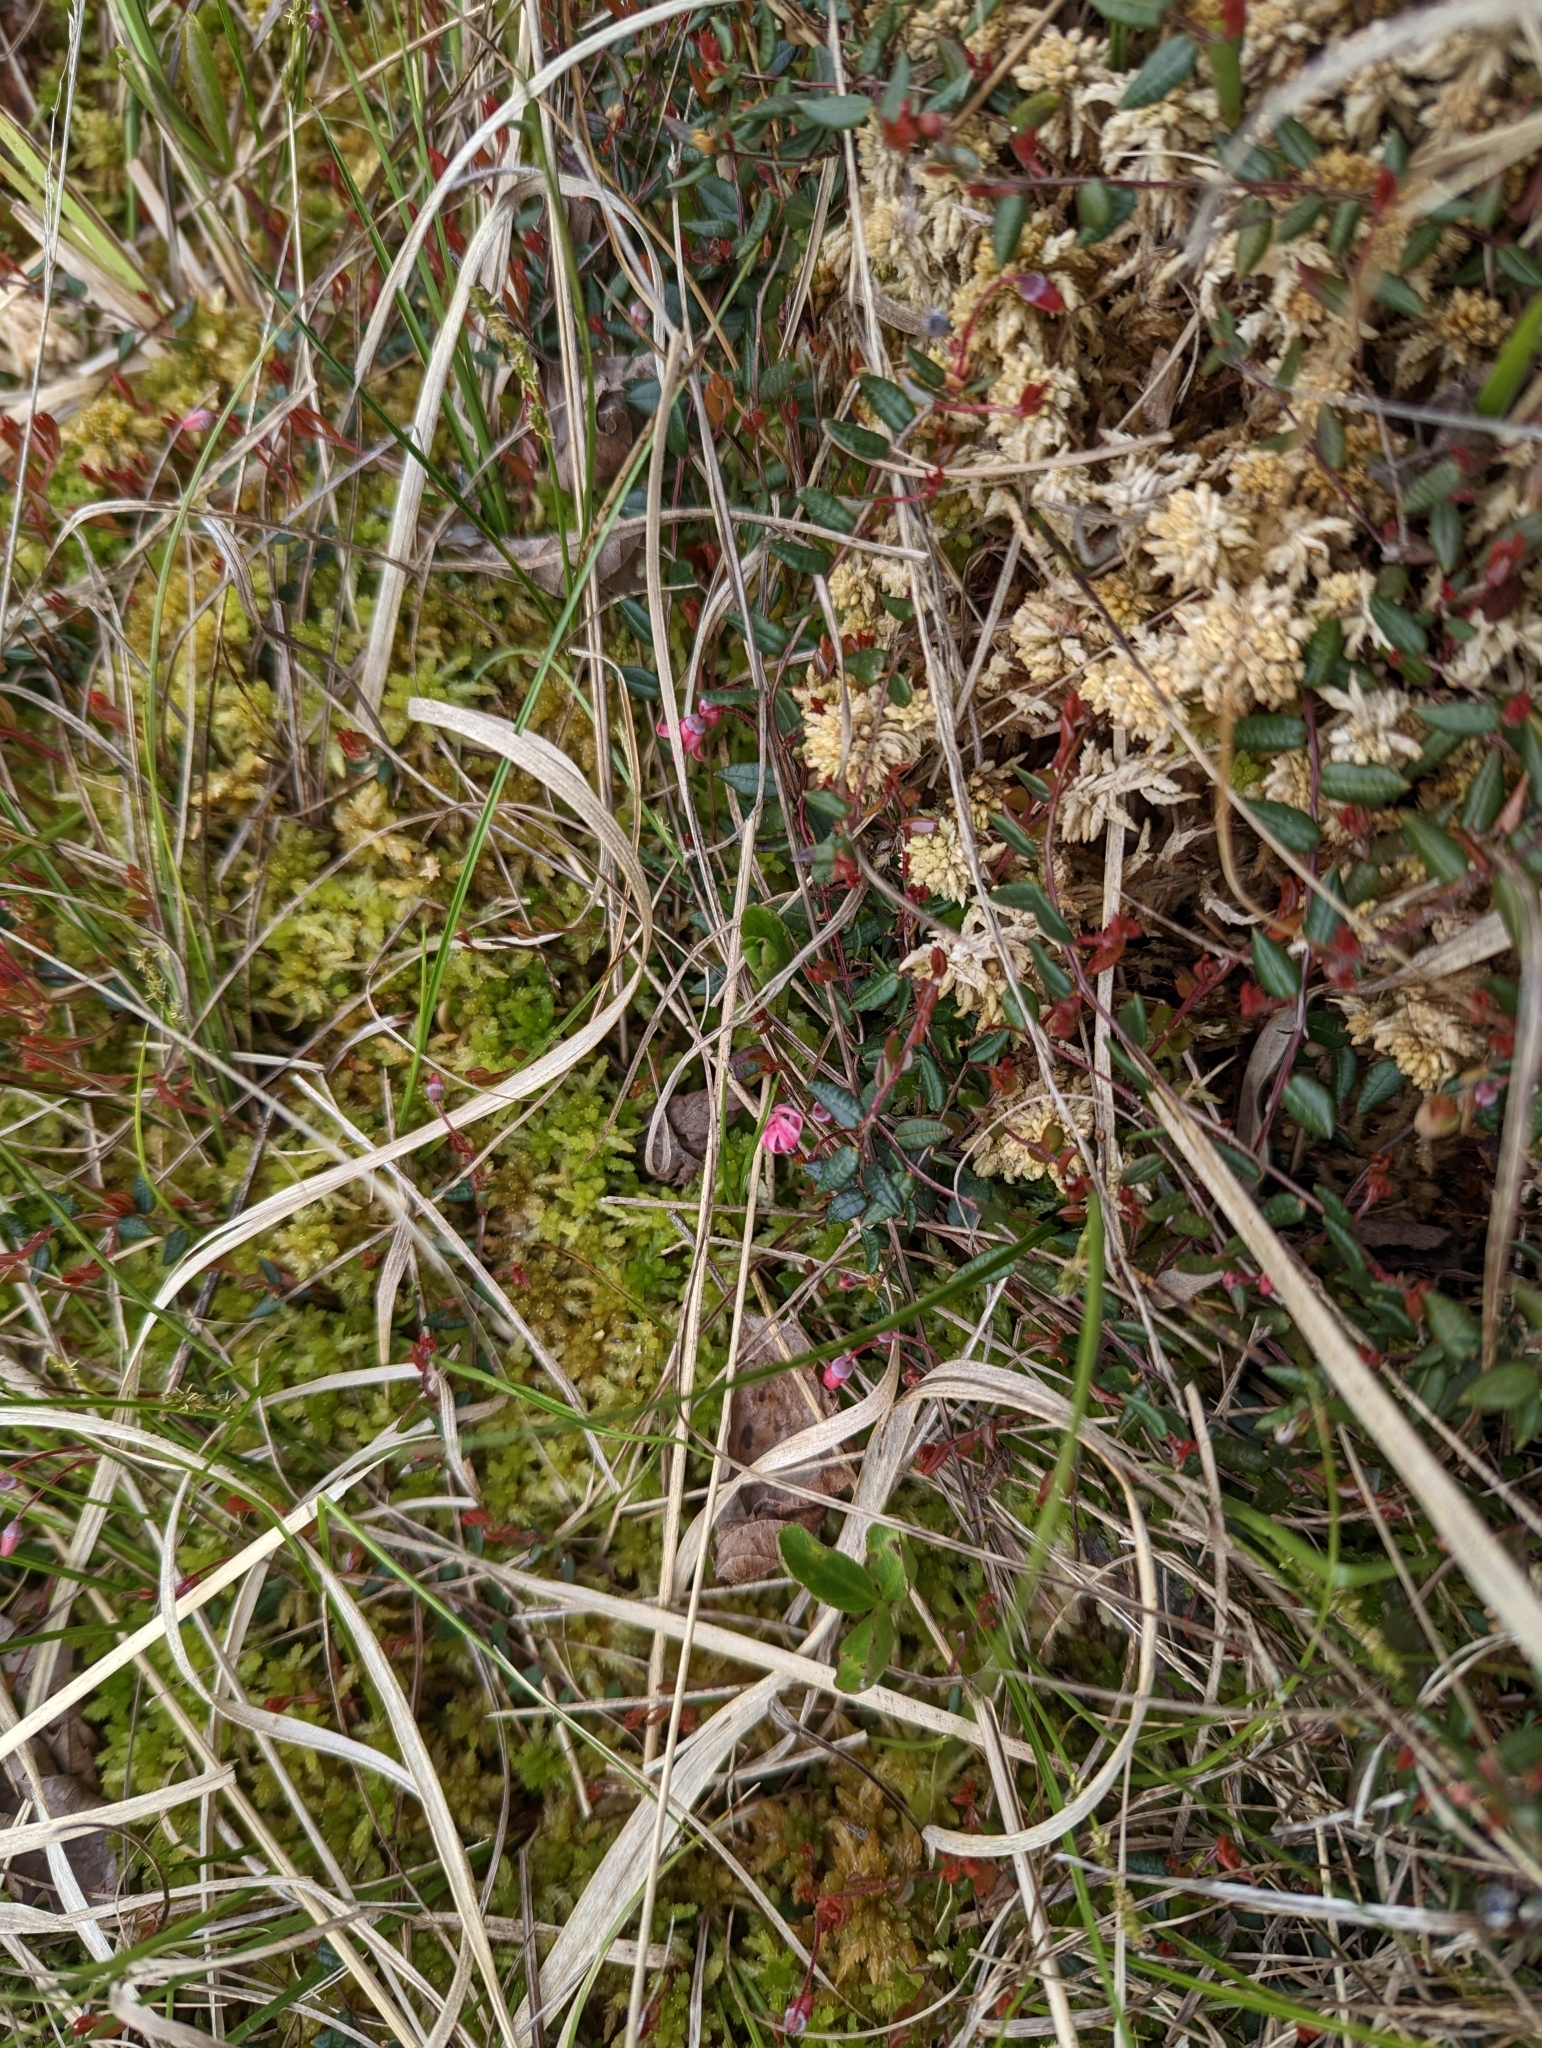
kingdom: Plantae
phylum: Tracheophyta
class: Magnoliopsida
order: Ericales
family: Ericaceae
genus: Vaccinium
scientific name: Vaccinium oxycoccos
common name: Cranberry
